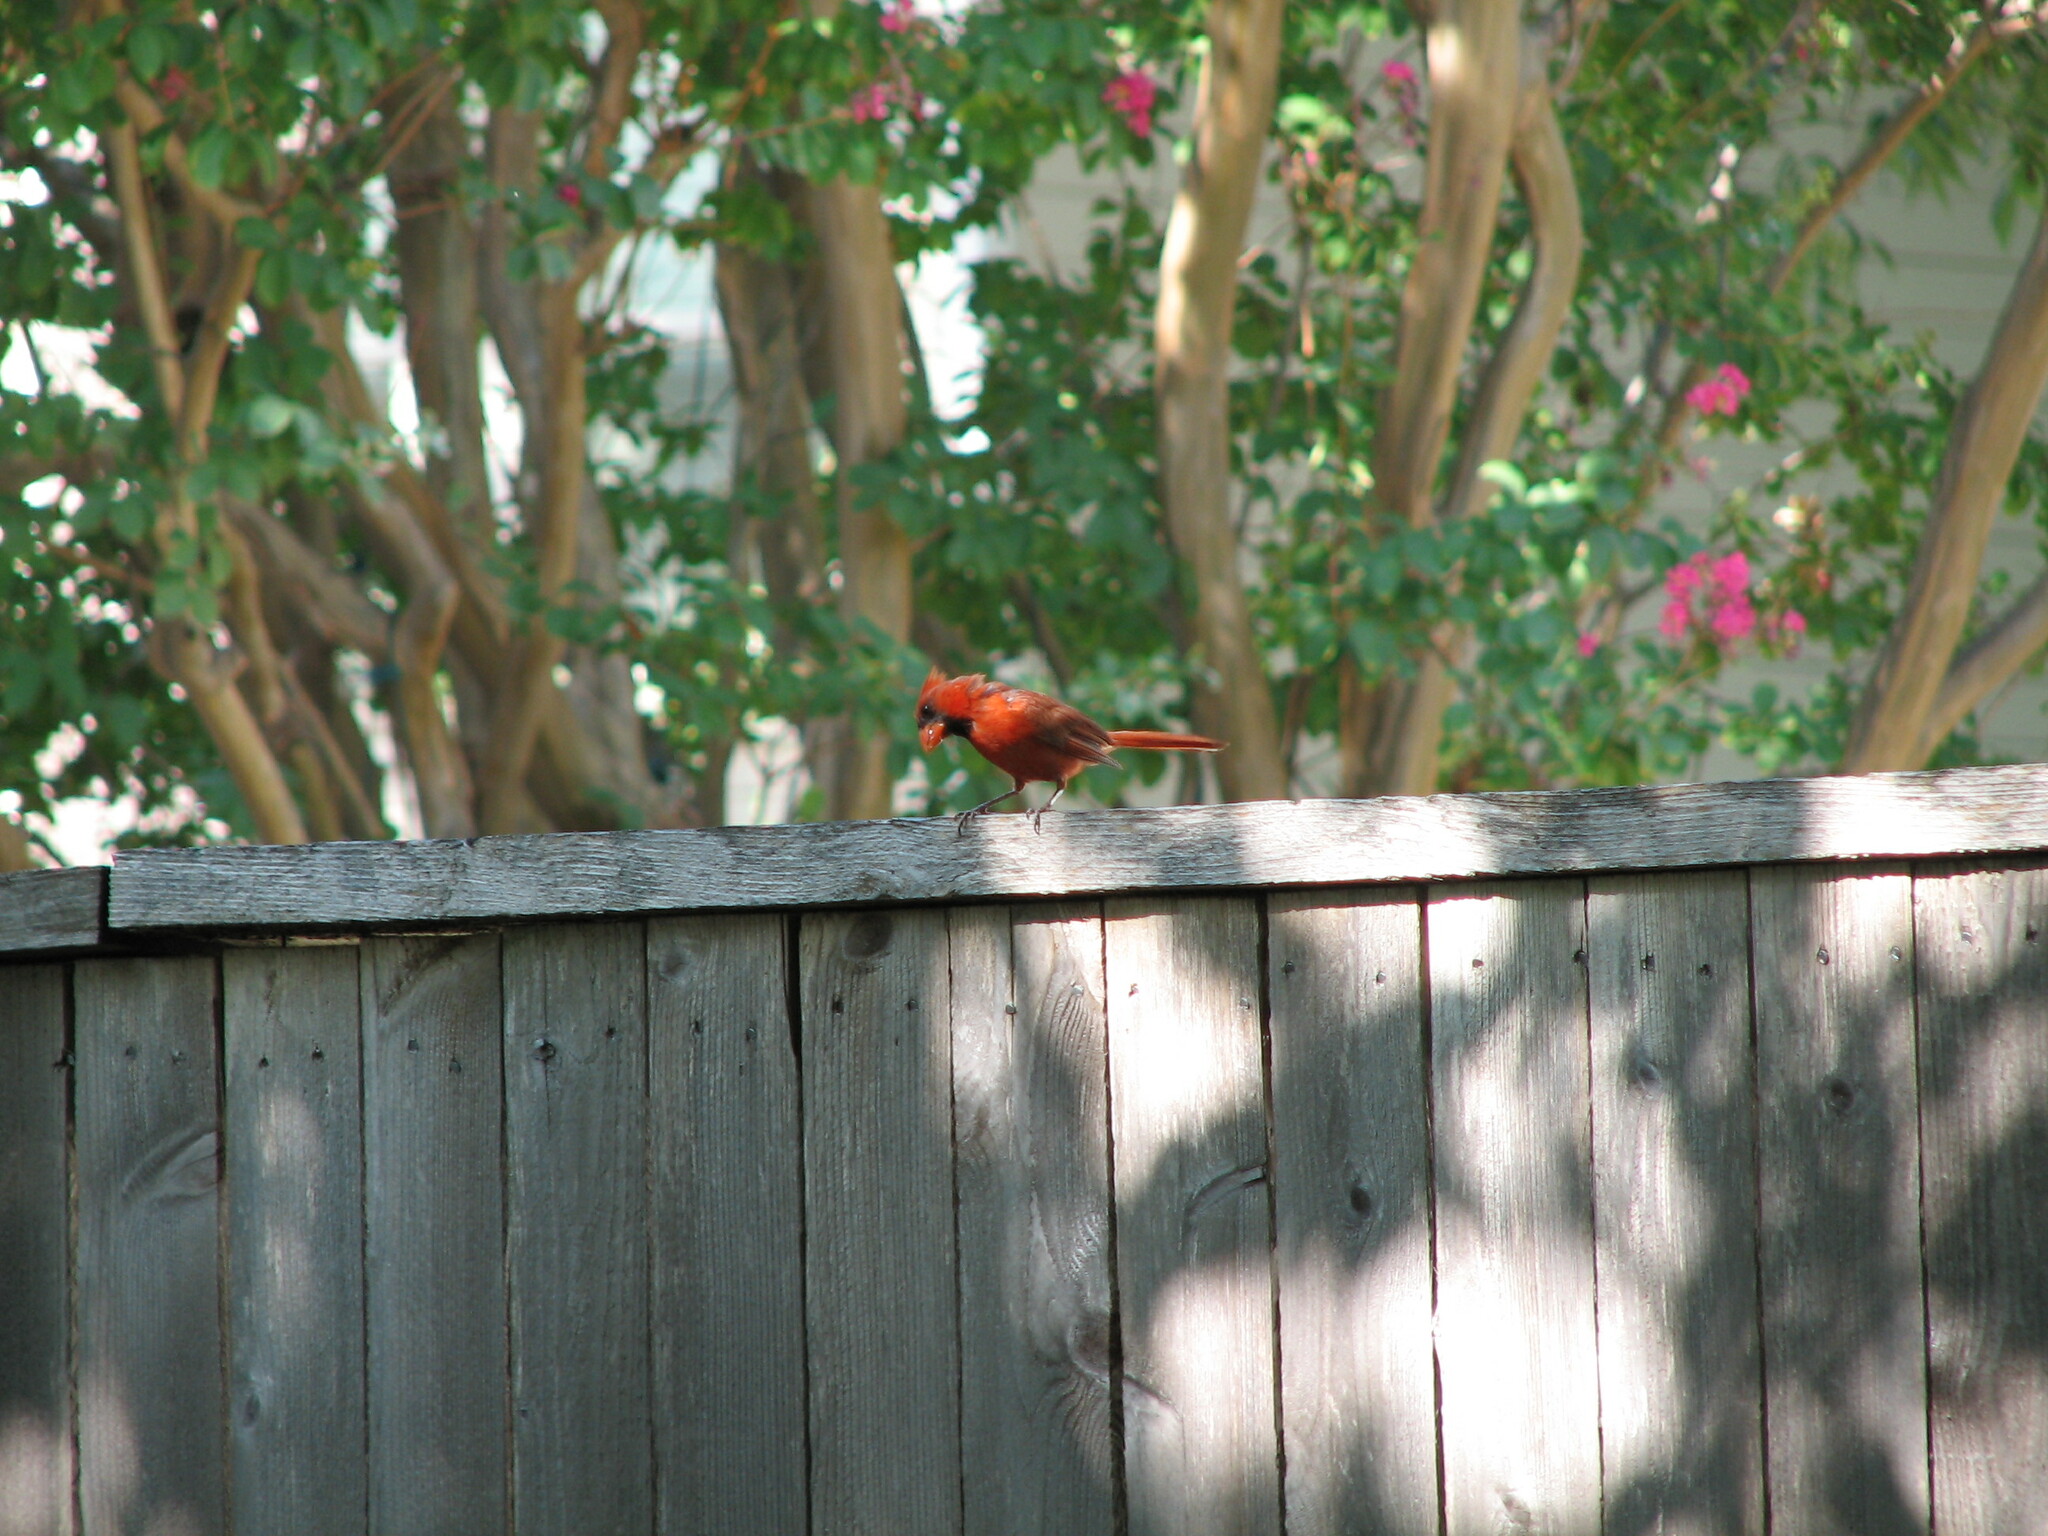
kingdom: Animalia
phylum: Chordata
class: Aves
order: Passeriformes
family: Cardinalidae
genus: Cardinalis
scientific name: Cardinalis cardinalis
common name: Northern cardinal
